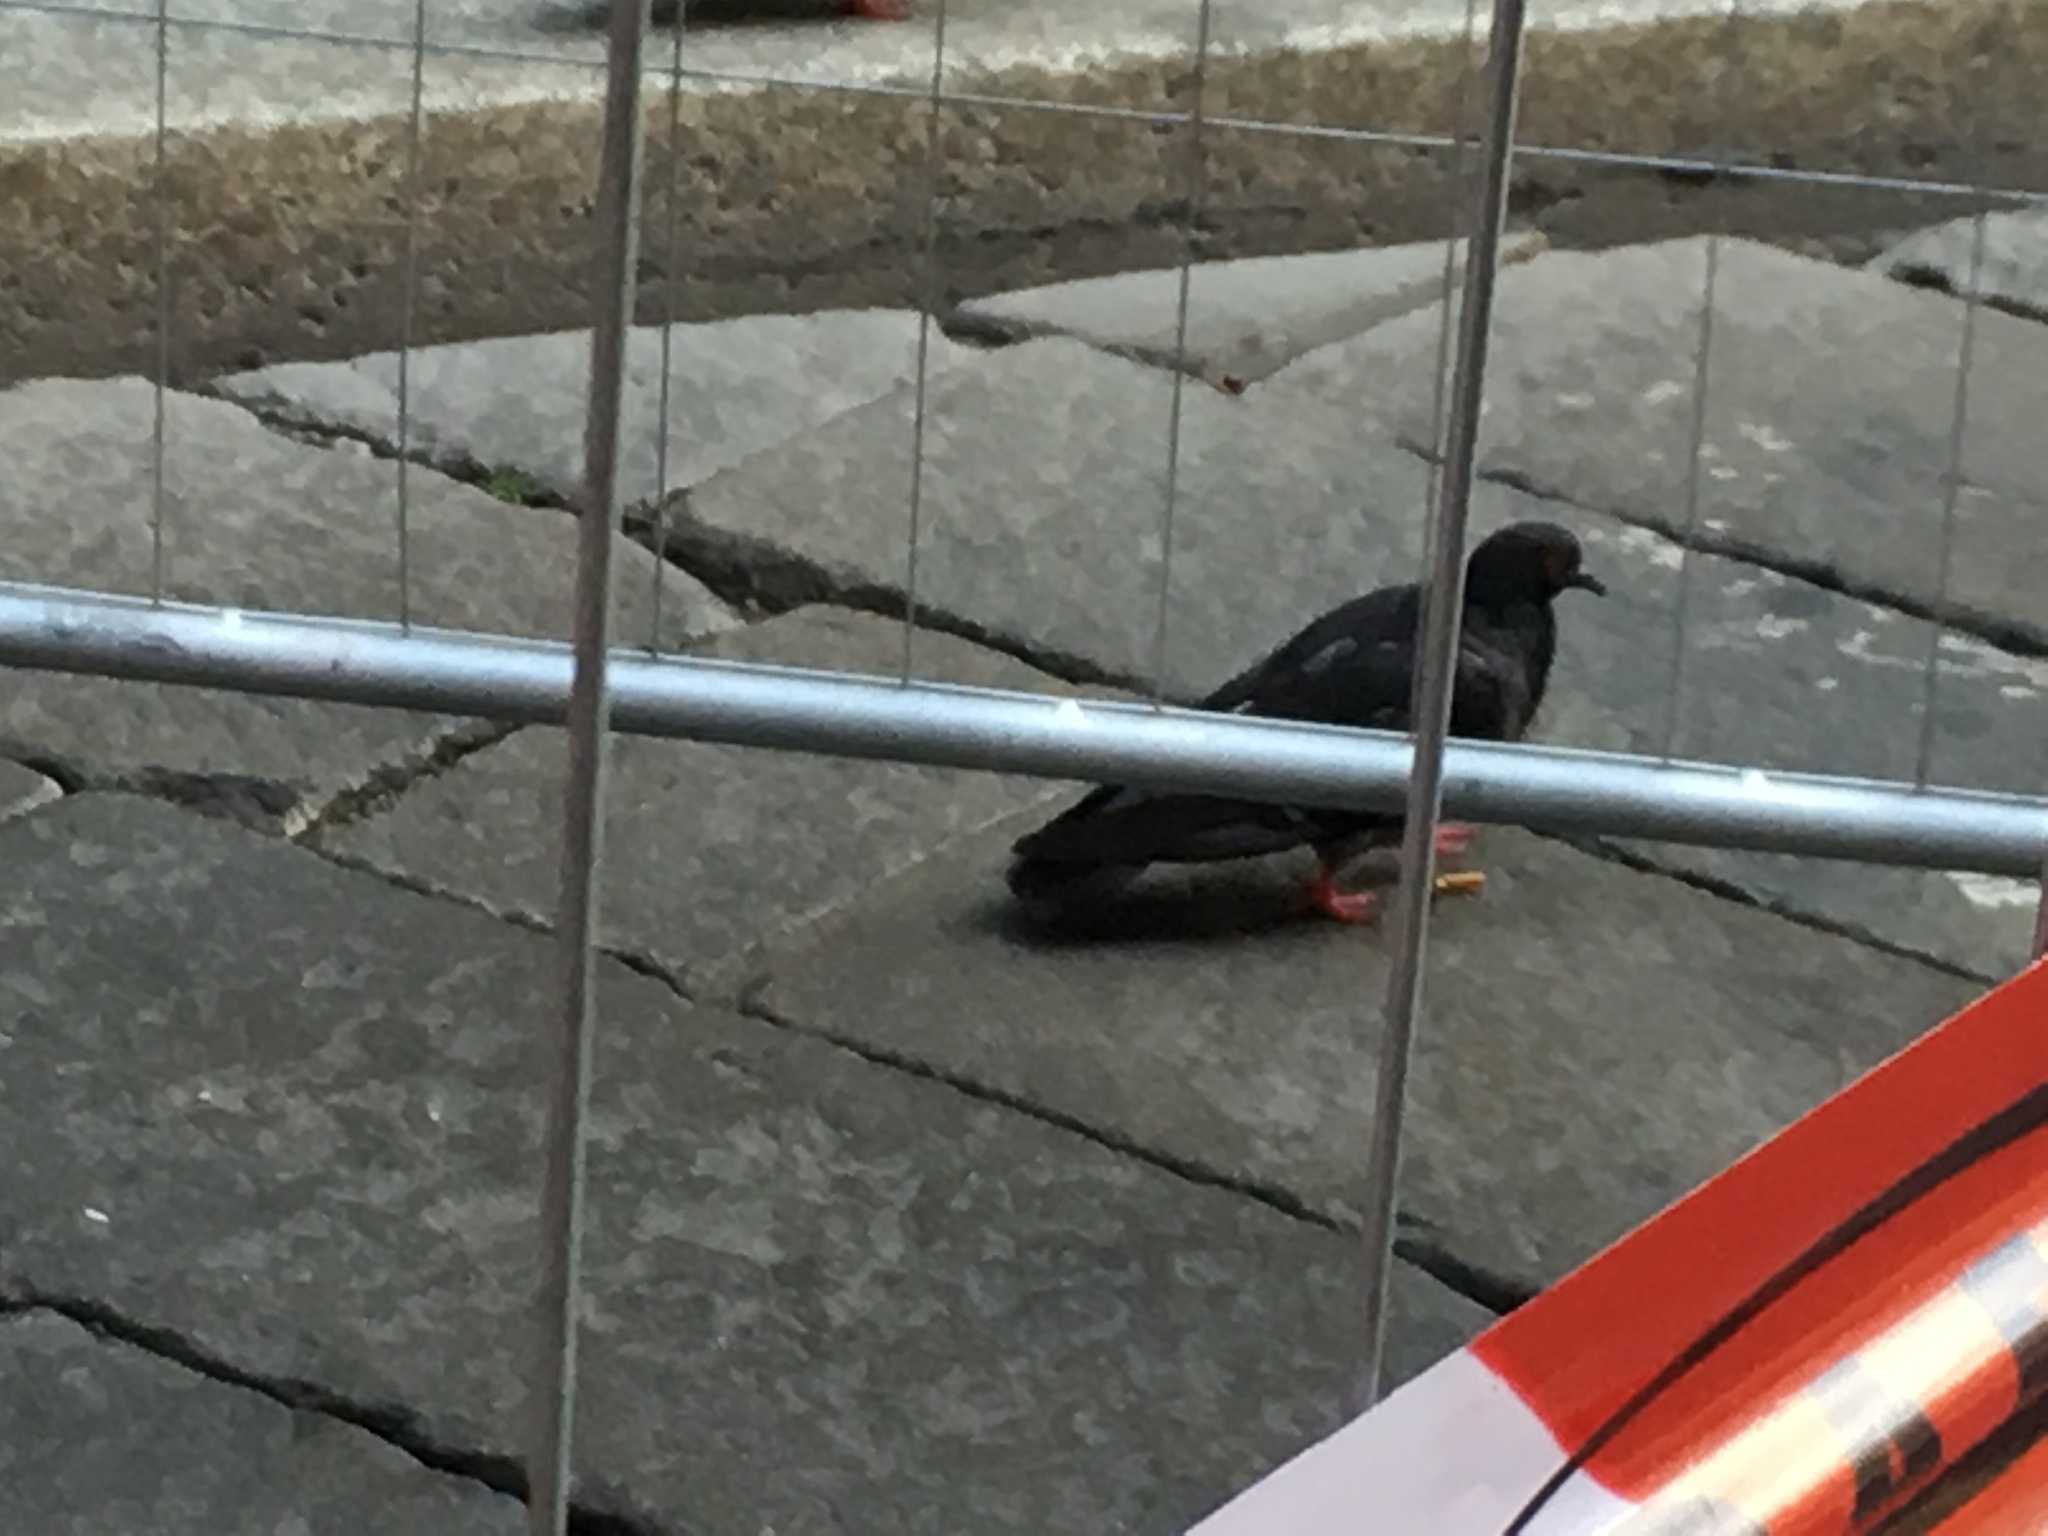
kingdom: Animalia
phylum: Chordata
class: Aves
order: Columbiformes
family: Columbidae
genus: Columba
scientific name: Columba livia
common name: Rock pigeon
